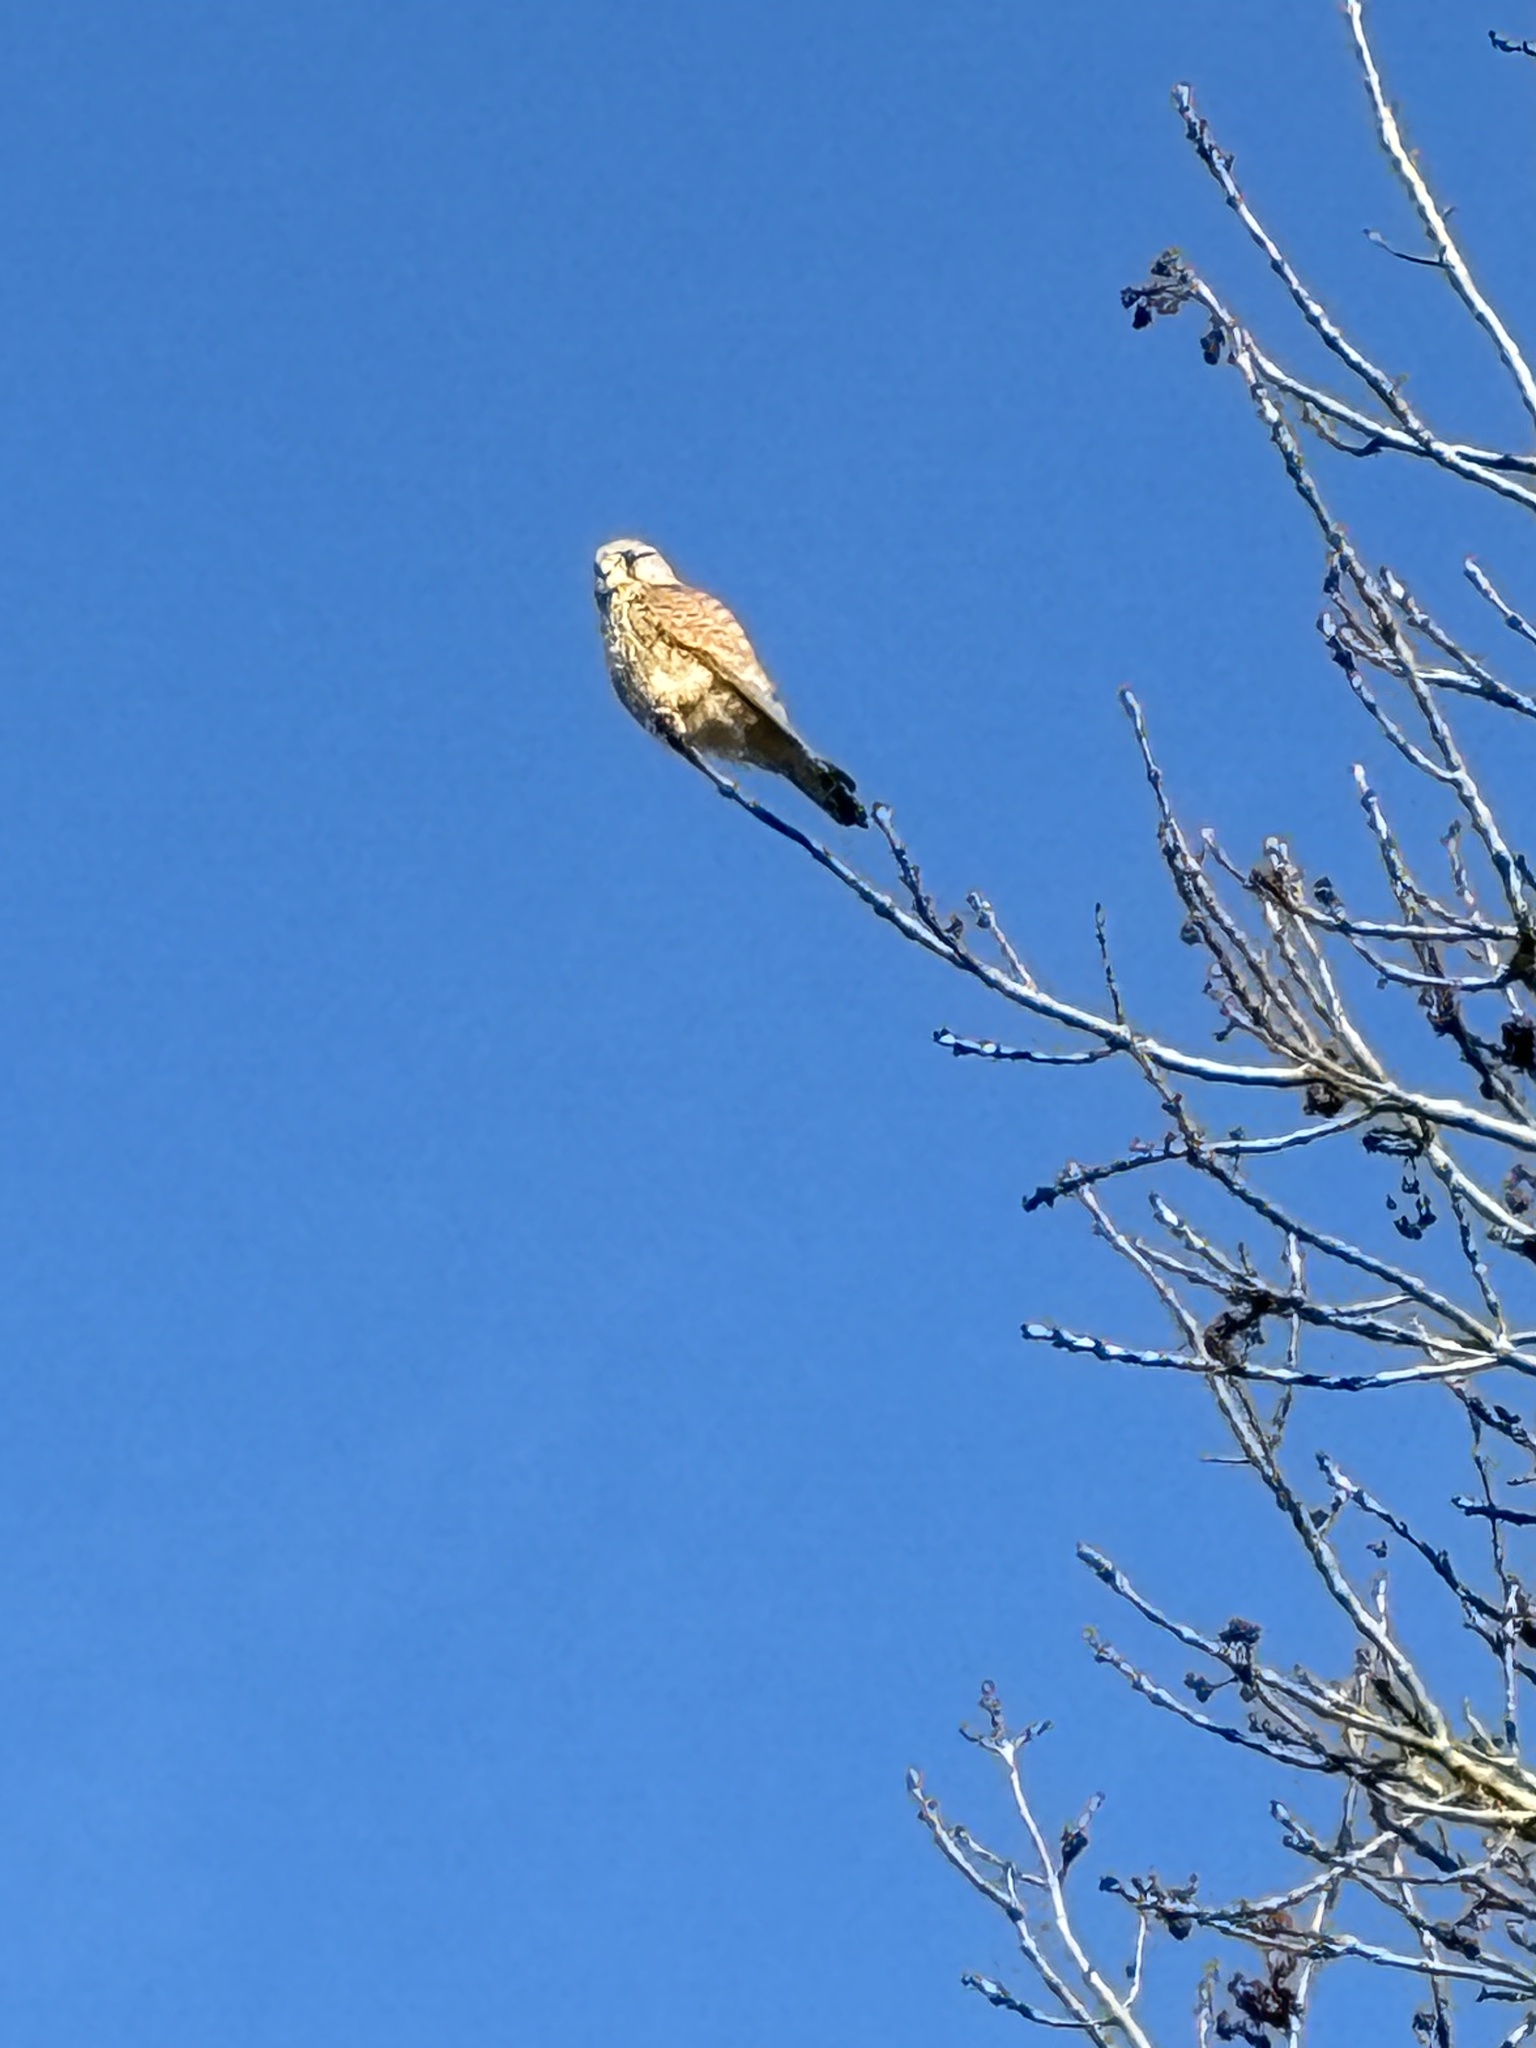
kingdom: Animalia
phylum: Chordata
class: Aves
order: Falconiformes
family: Falconidae
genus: Falco
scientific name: Falco tinnunculus
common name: Common kestrel
